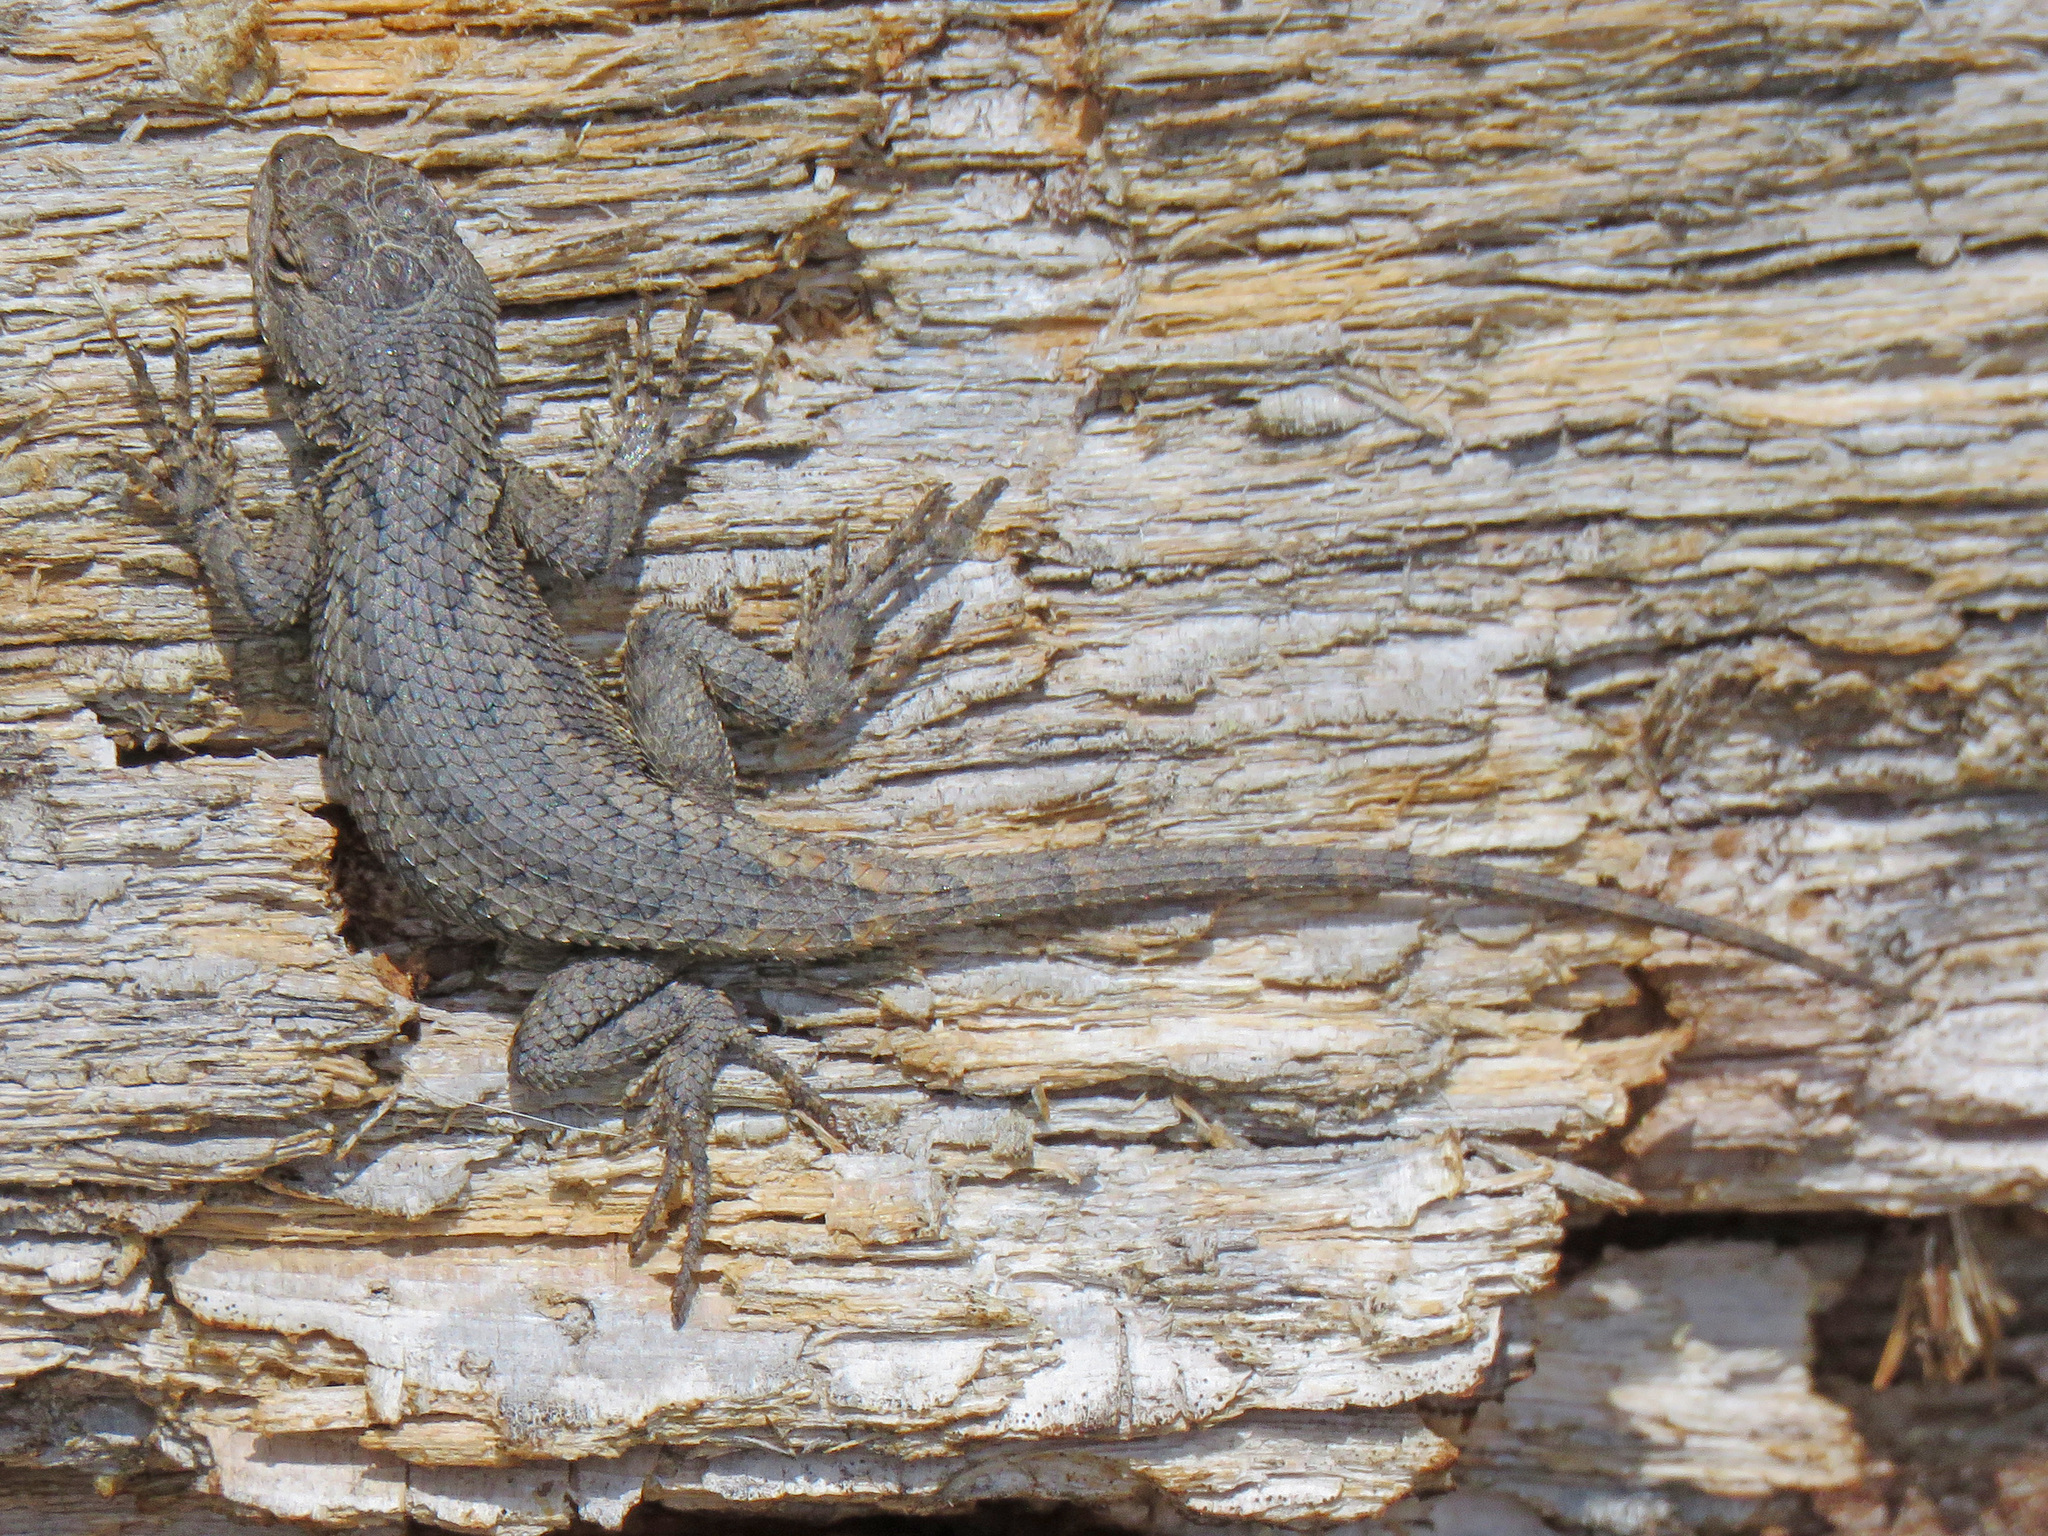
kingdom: Animalia
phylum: Chordata
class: Squamata
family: Phrynosomatidae
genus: Sceloporus
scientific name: Sceloporus undulatus
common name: Eastern fence lizard
